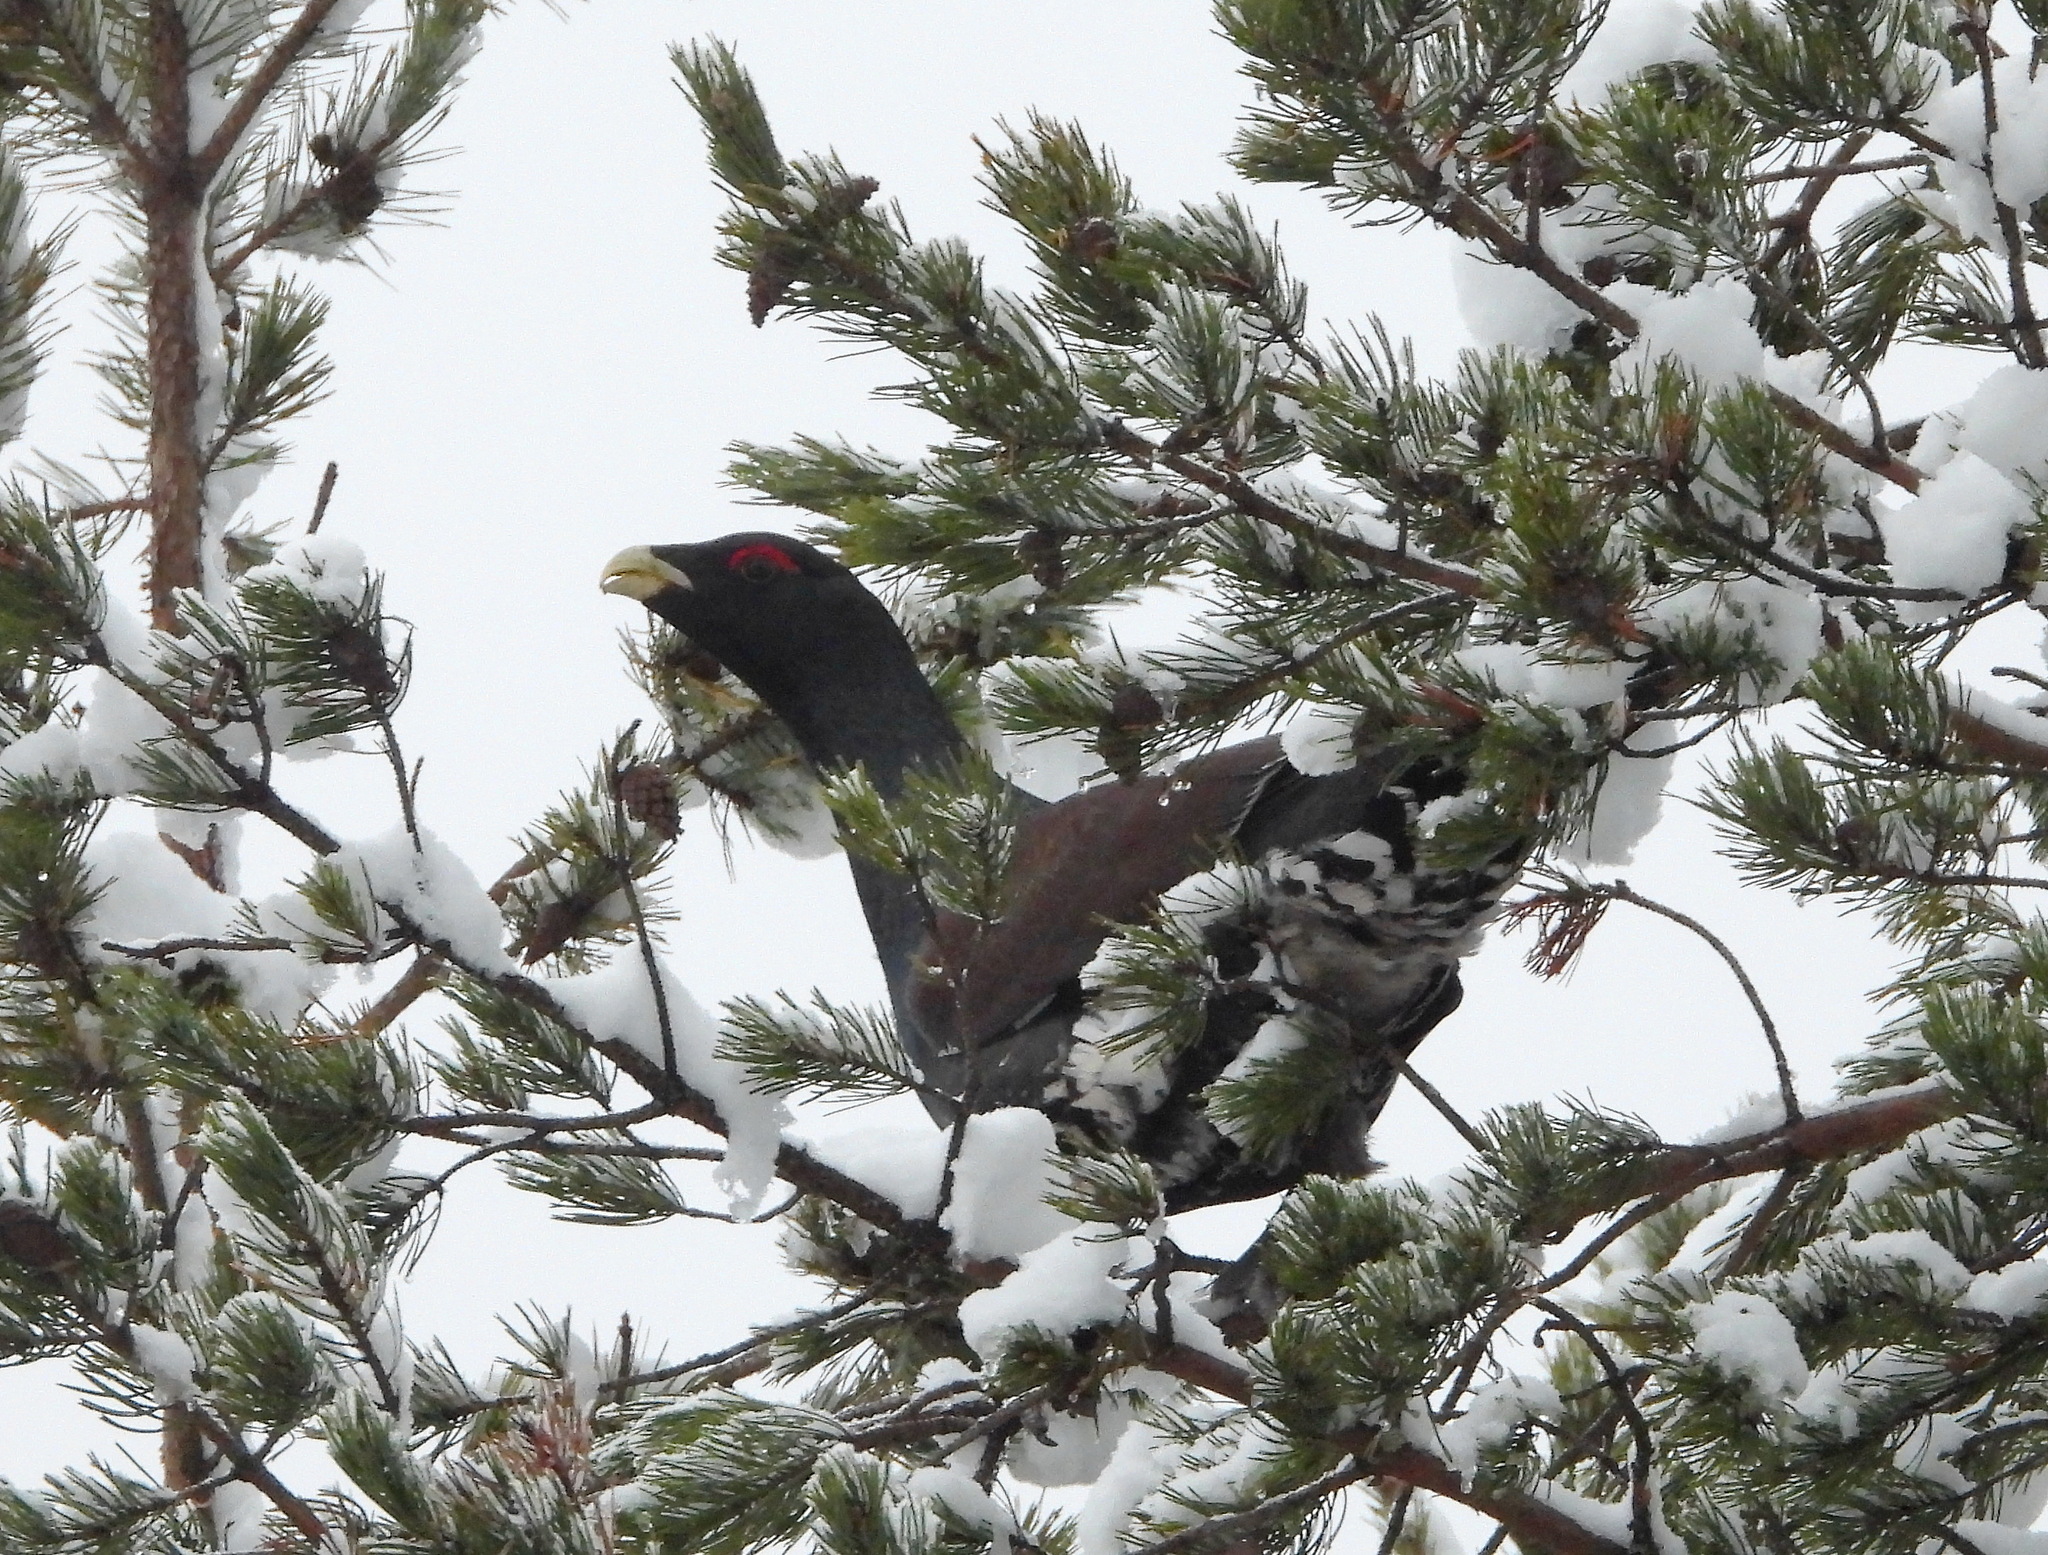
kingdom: Animalia
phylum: Chordata
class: Aves
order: Galliformes
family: Phasianidae
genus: Tetrao
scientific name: Tetrao urogallus
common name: Western capercaillie
